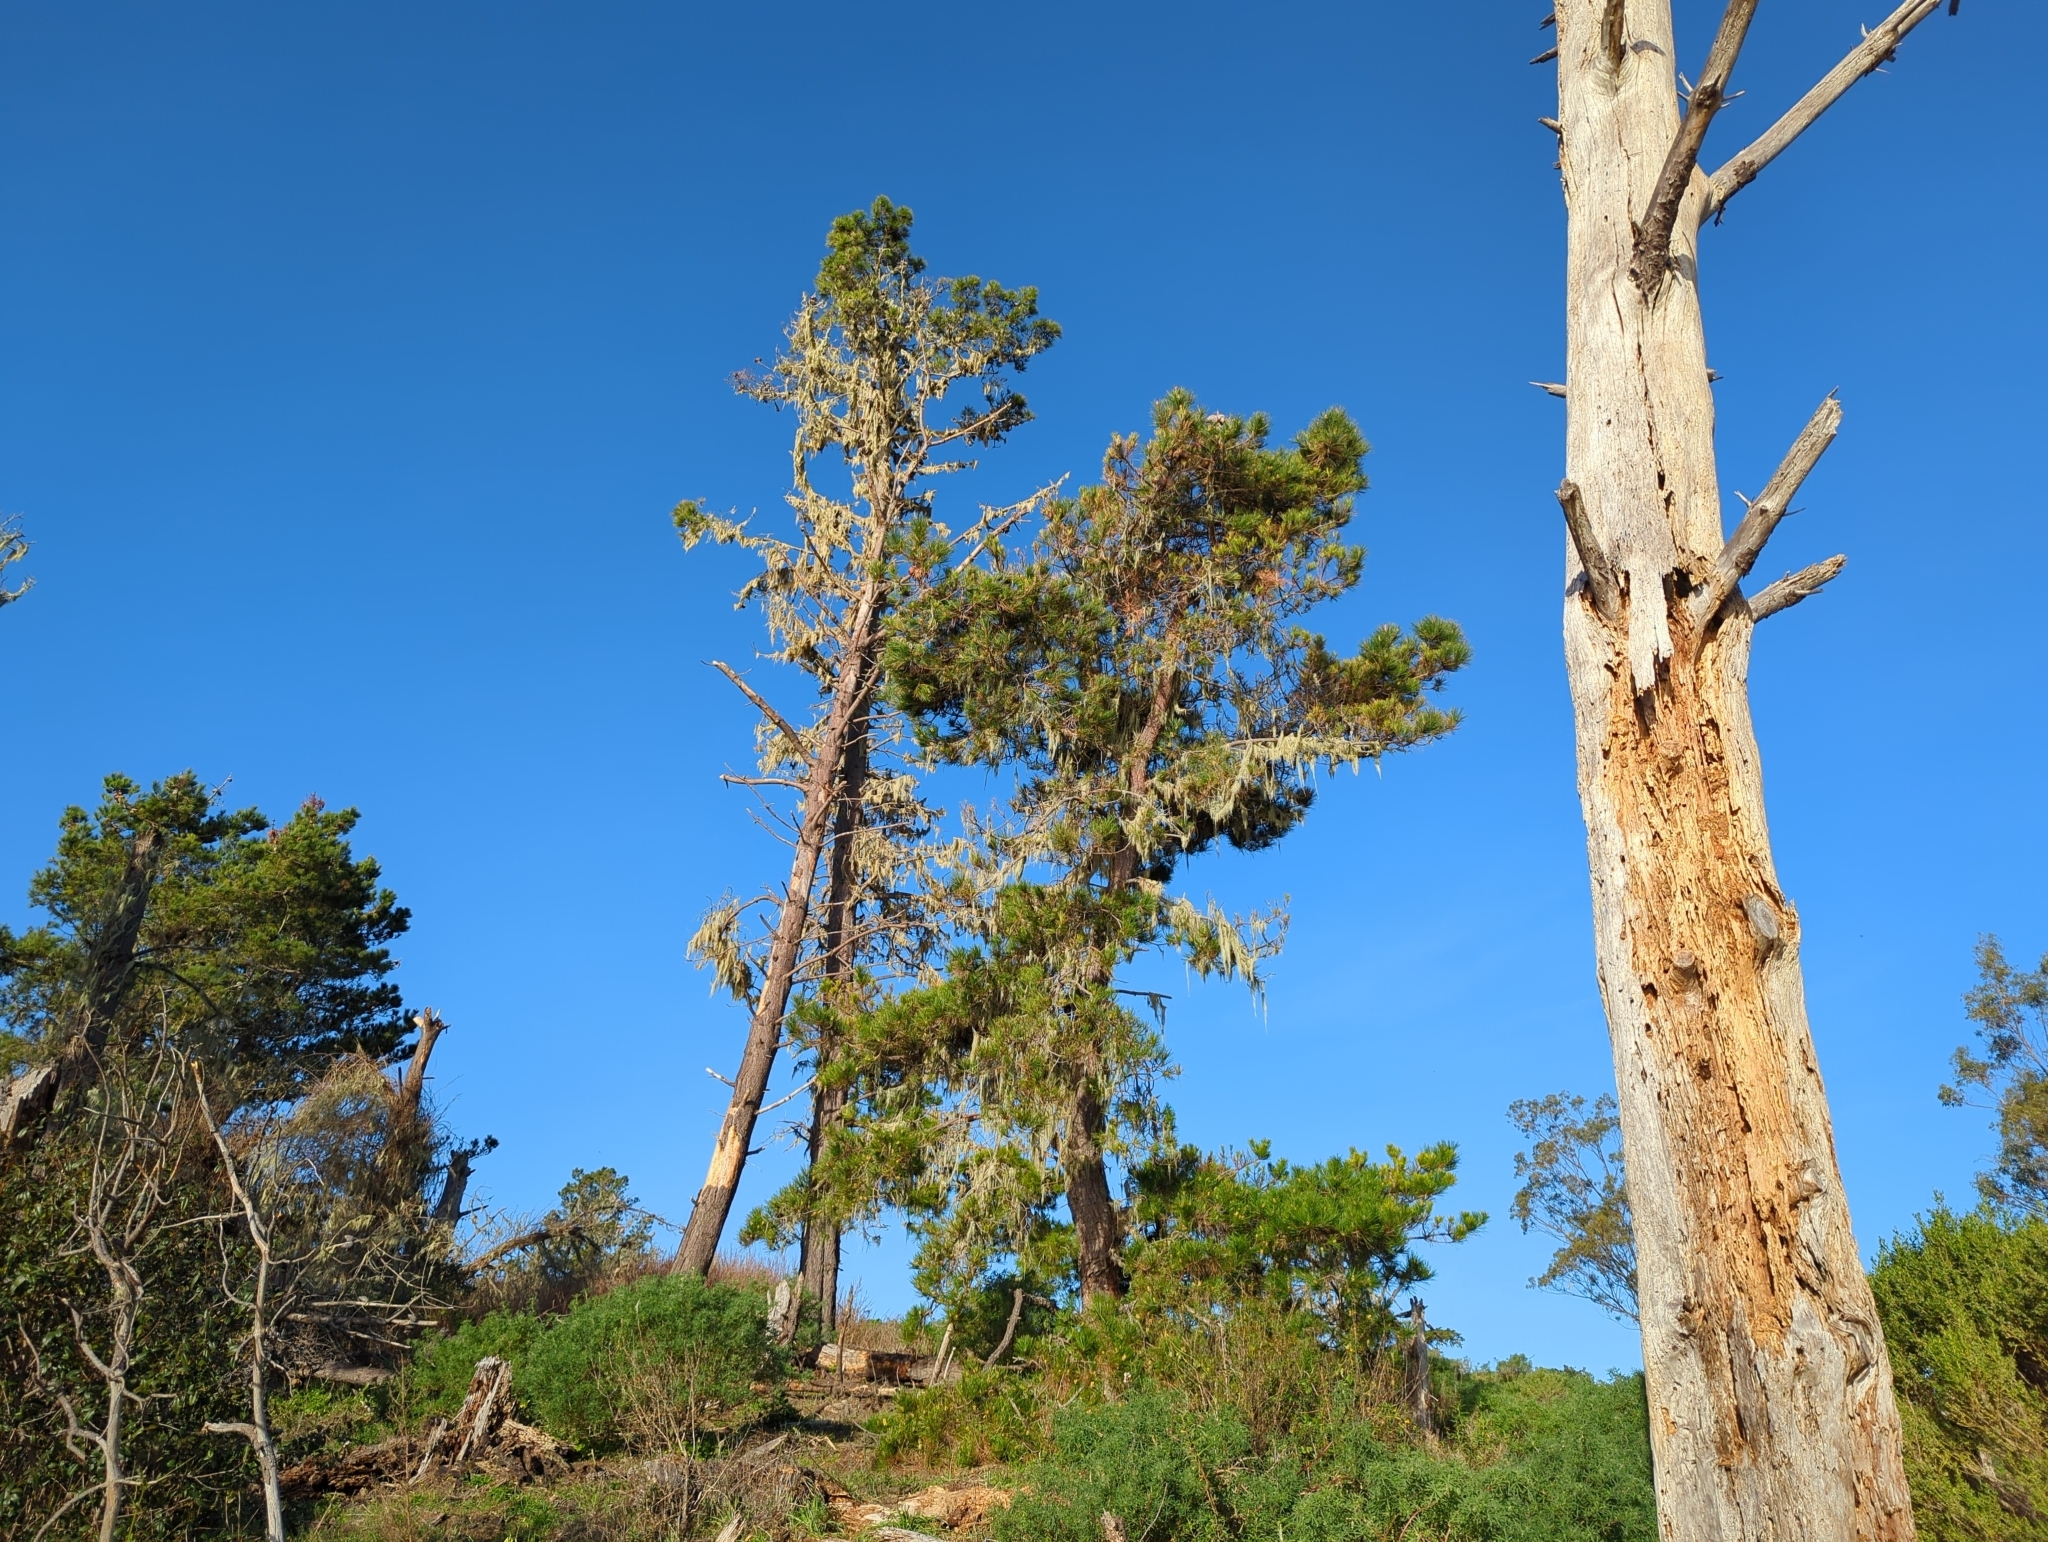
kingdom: Plantae
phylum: Tracheophyta
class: Pinopsida
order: Pinales
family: Pinaceae
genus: Pinus
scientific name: Pinus radiata
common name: Monterey pine
